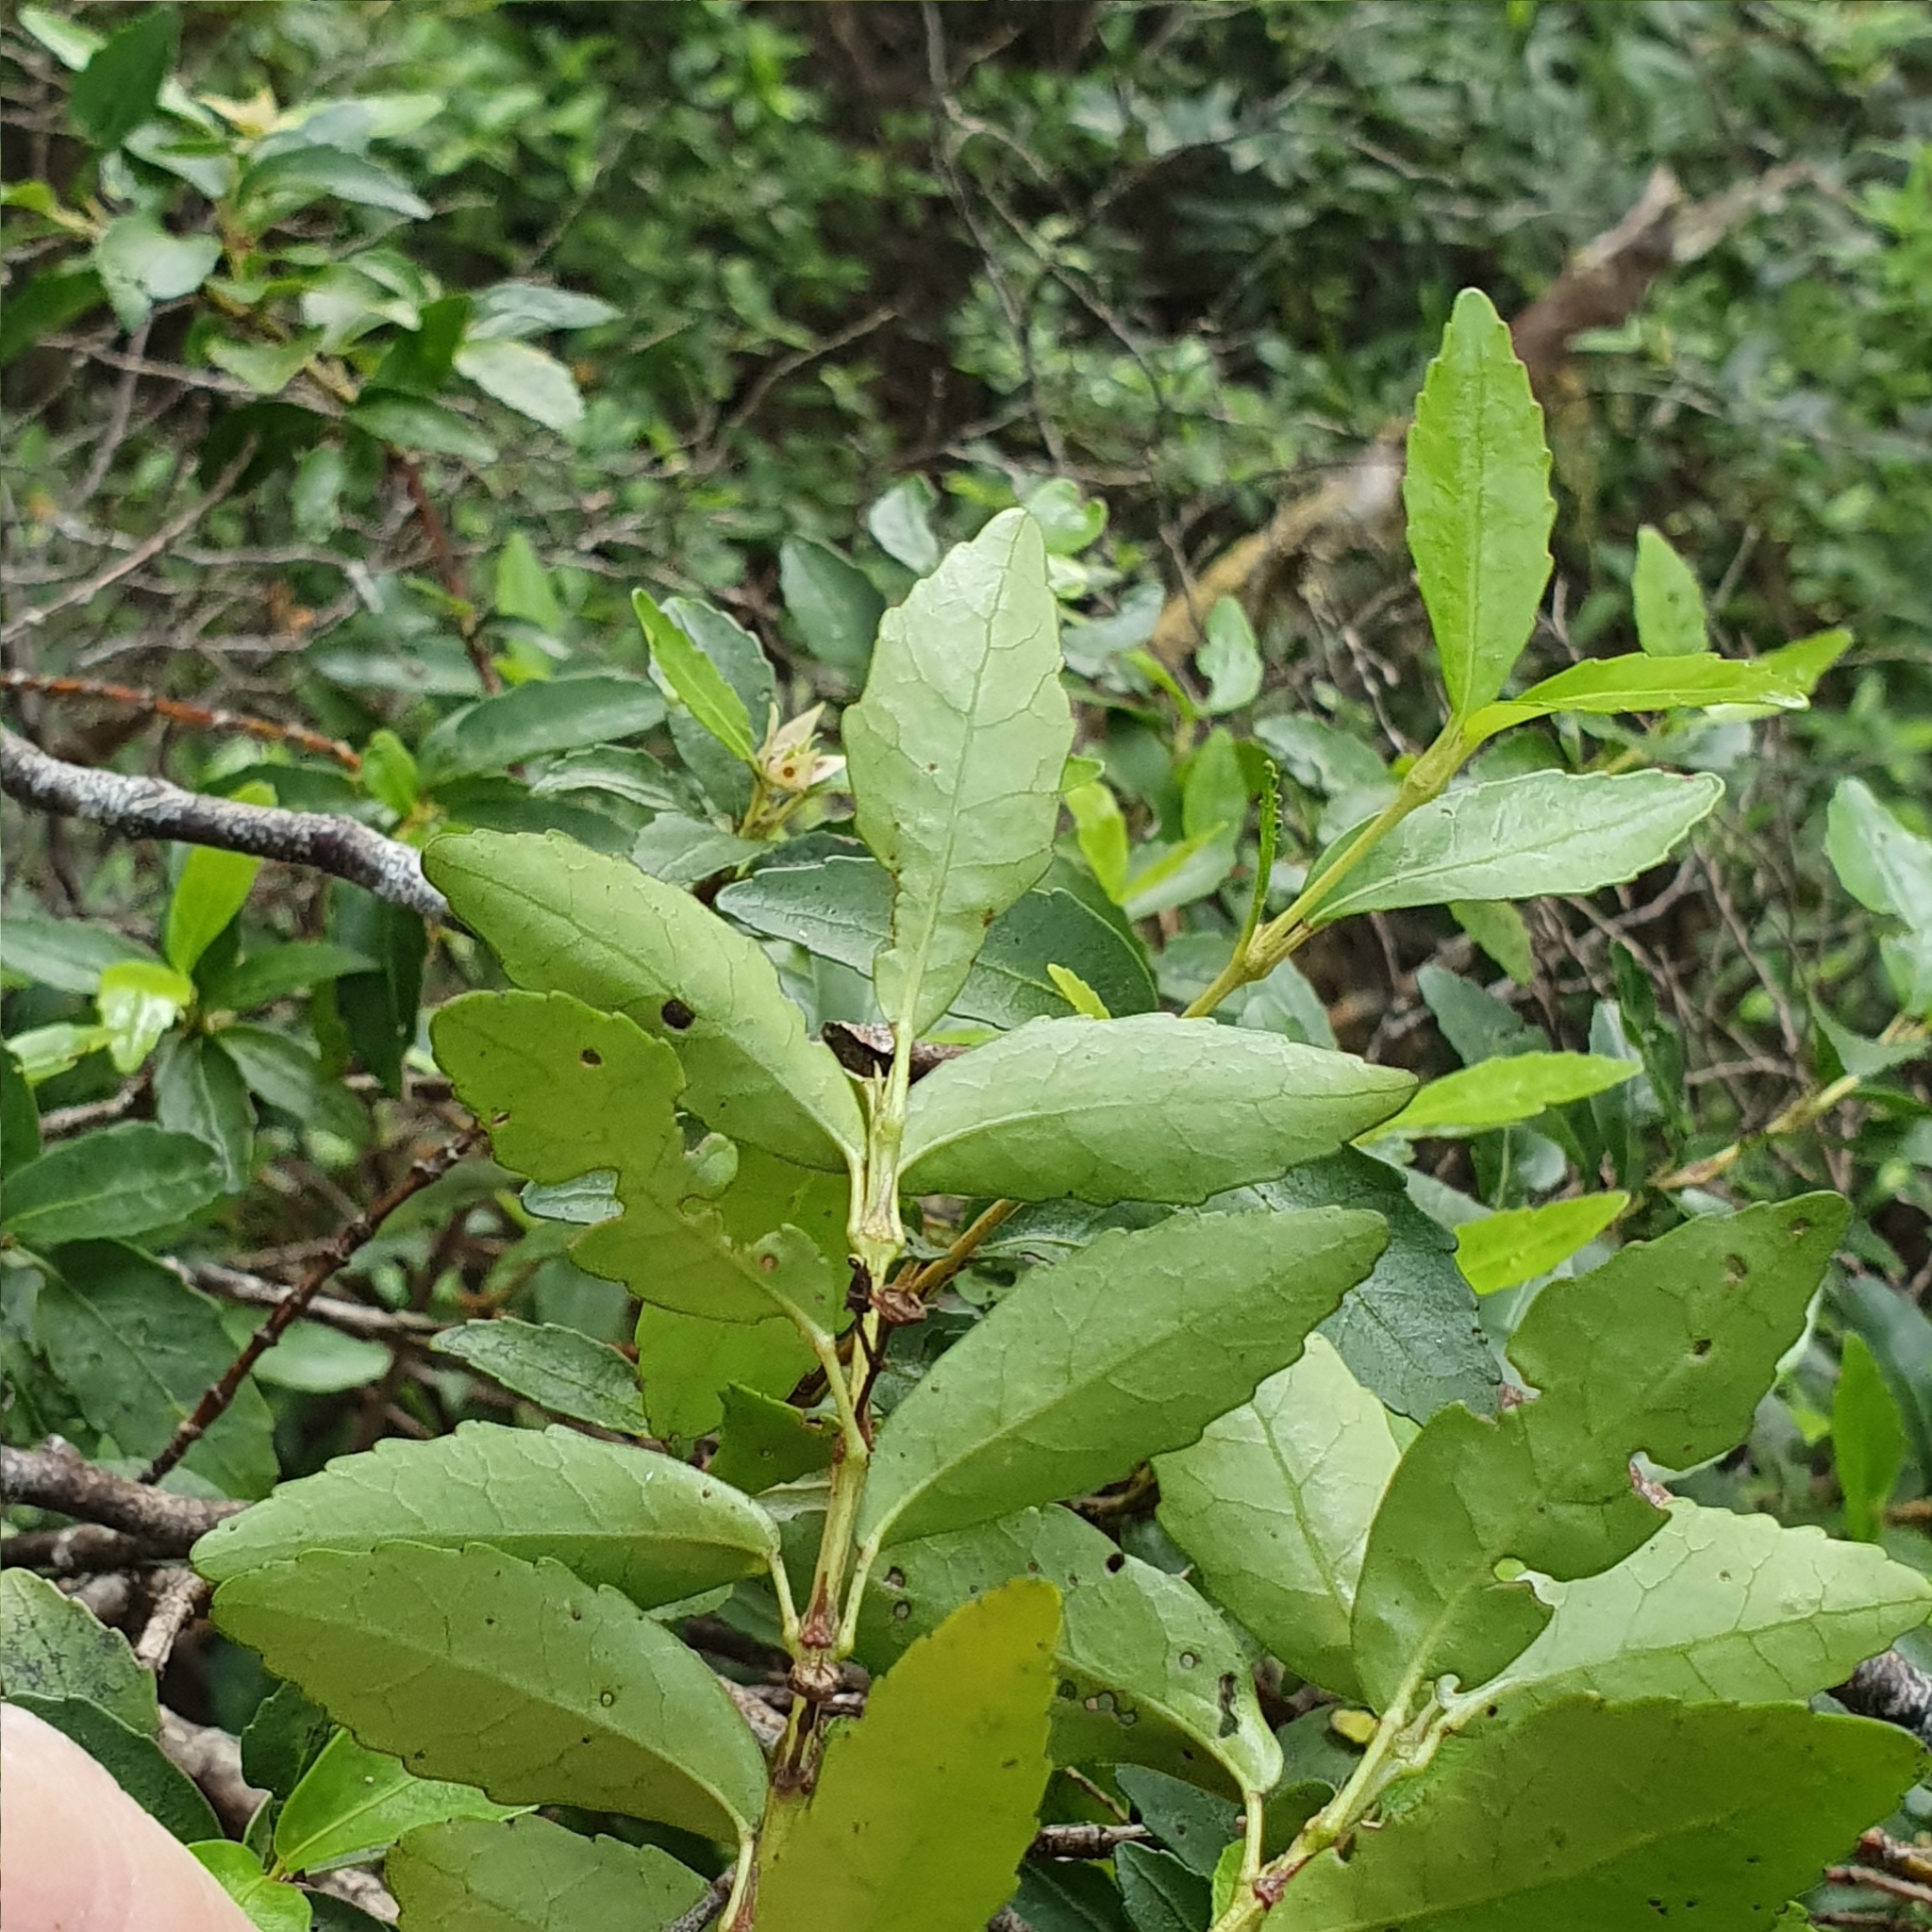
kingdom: Plantae
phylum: Tracheophyta
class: Magnoliopsida
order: Oxalidales
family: Cunoniaceae
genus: Anodopetalum
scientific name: Anodopetalum biglandulosum
